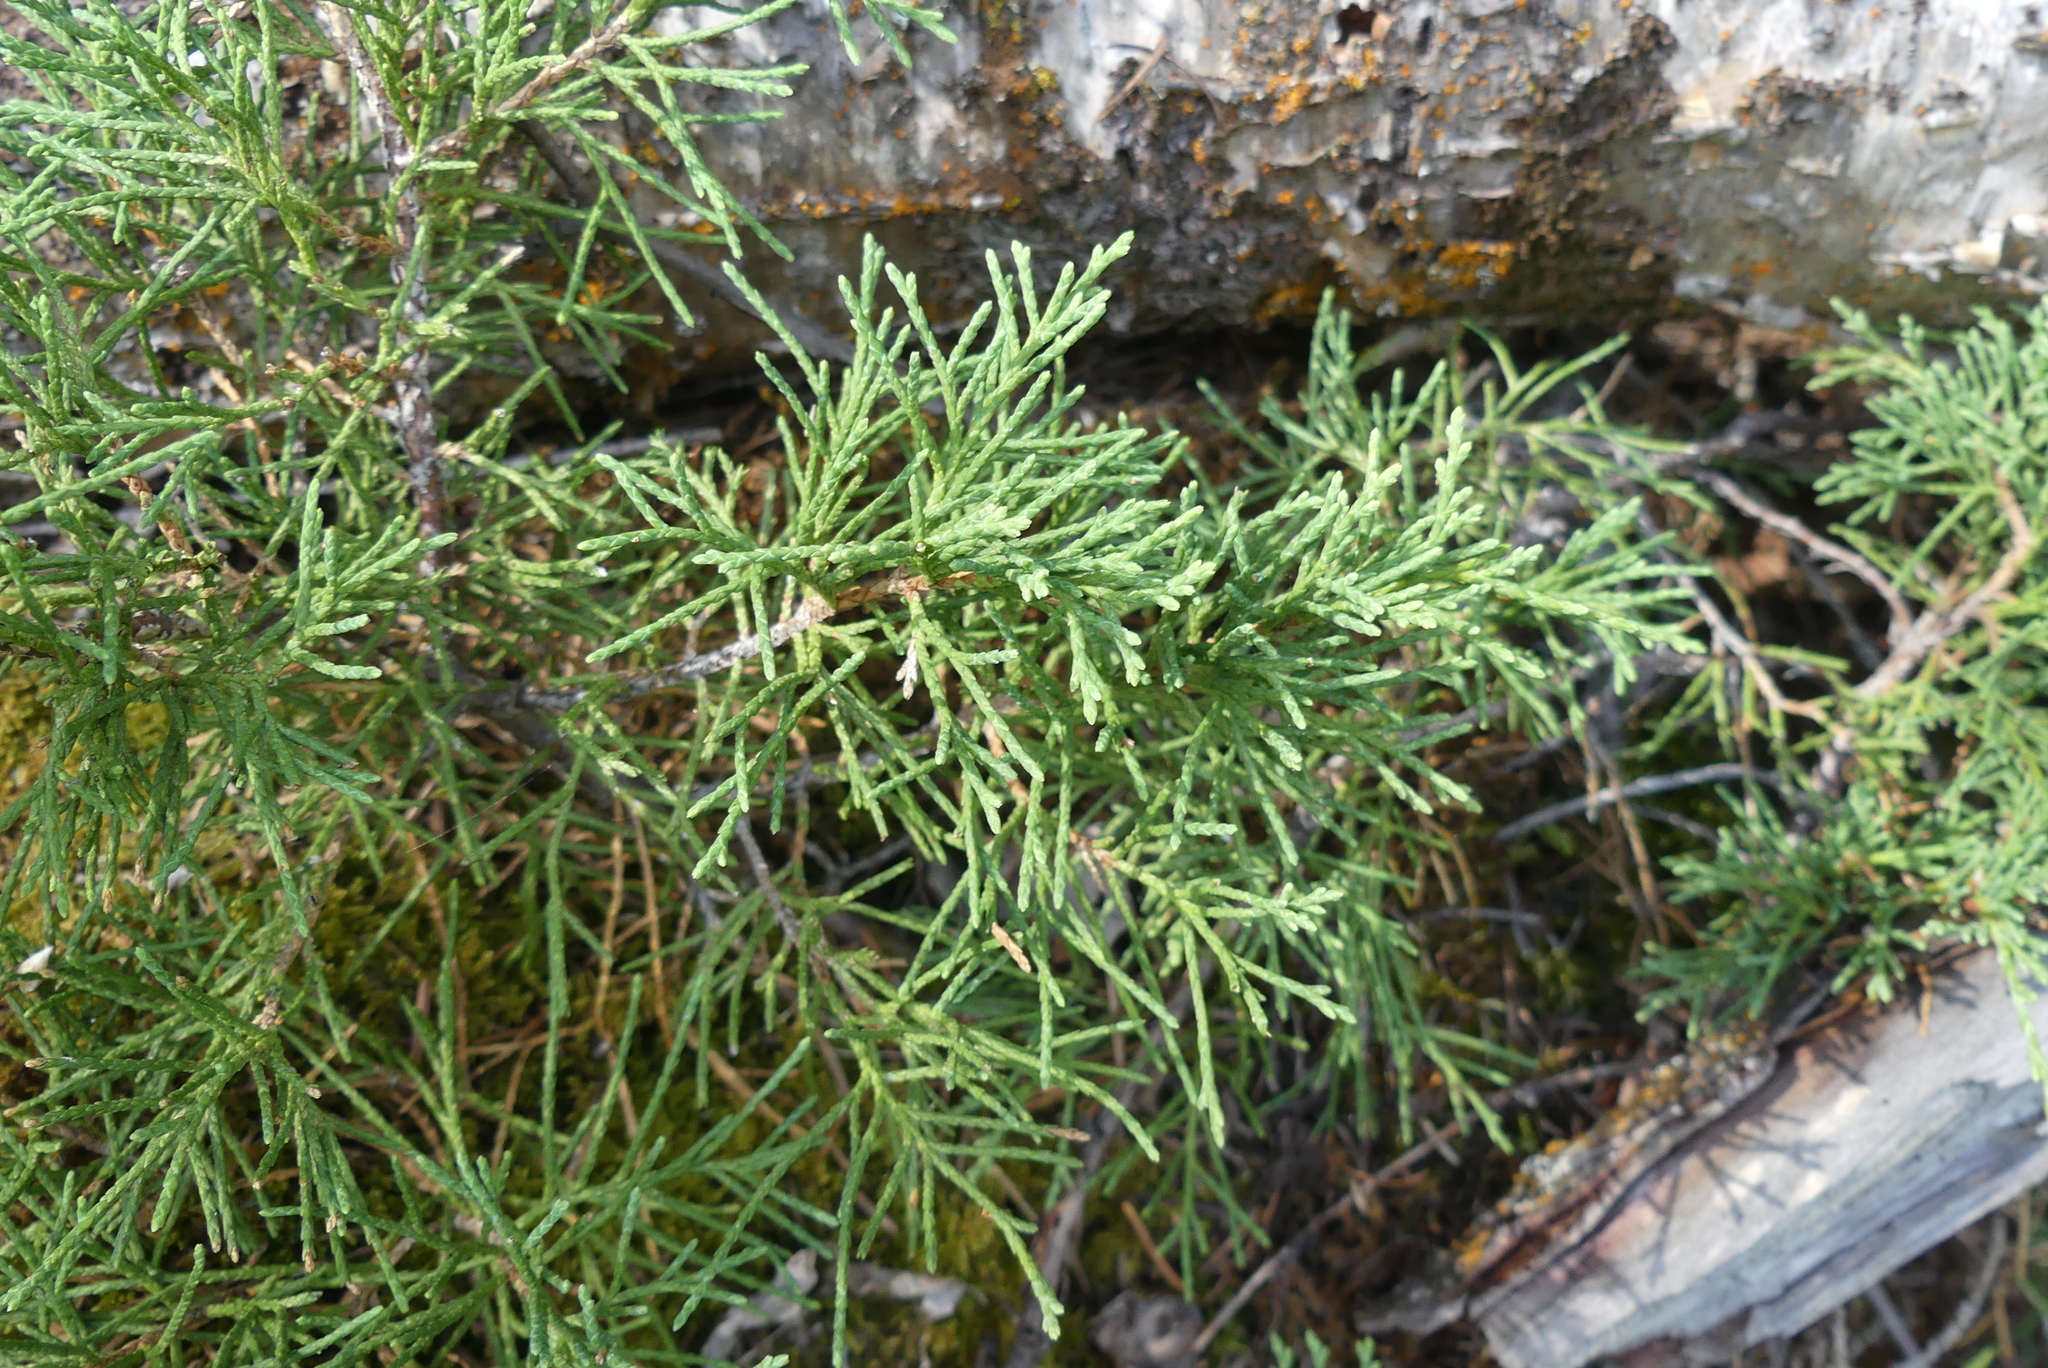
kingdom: Plantae
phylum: Tracheophyta
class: Pinopsida
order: Pinales
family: Cupressaceae
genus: Juniperus
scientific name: Juniperus scopulorum
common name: Rocky mountain juniper
